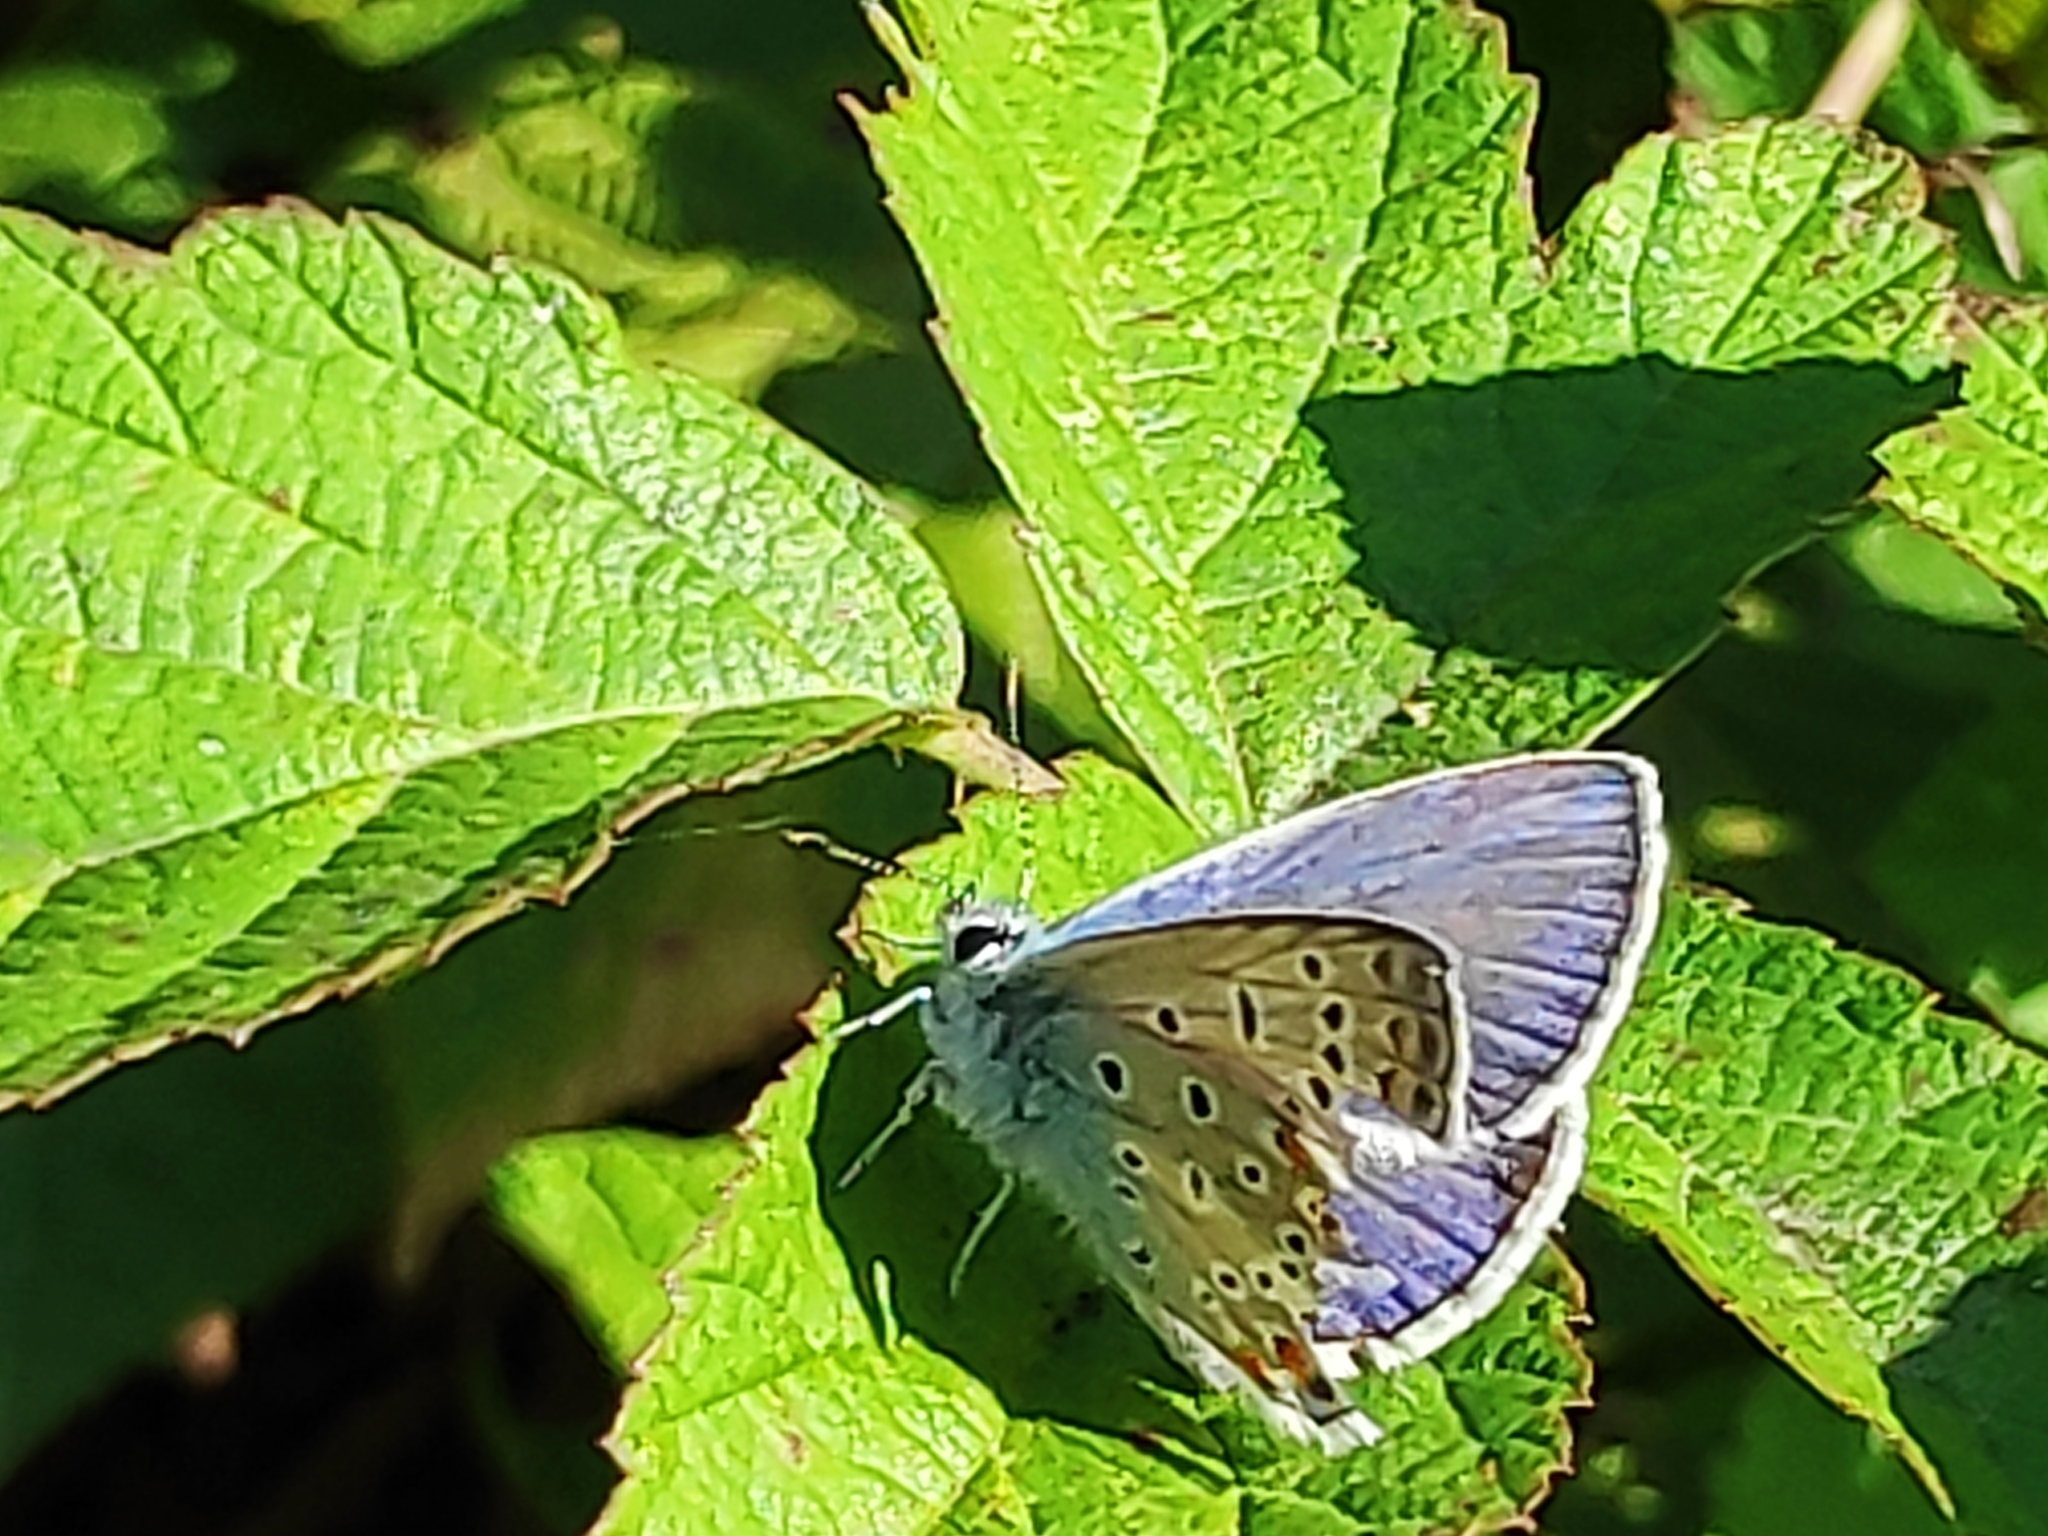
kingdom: Animalia
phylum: Arthropoda
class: Insecta
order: Lepidoptera
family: Lycaenidae
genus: Polyommatus
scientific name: Polyommatus icarus
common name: Common blue
